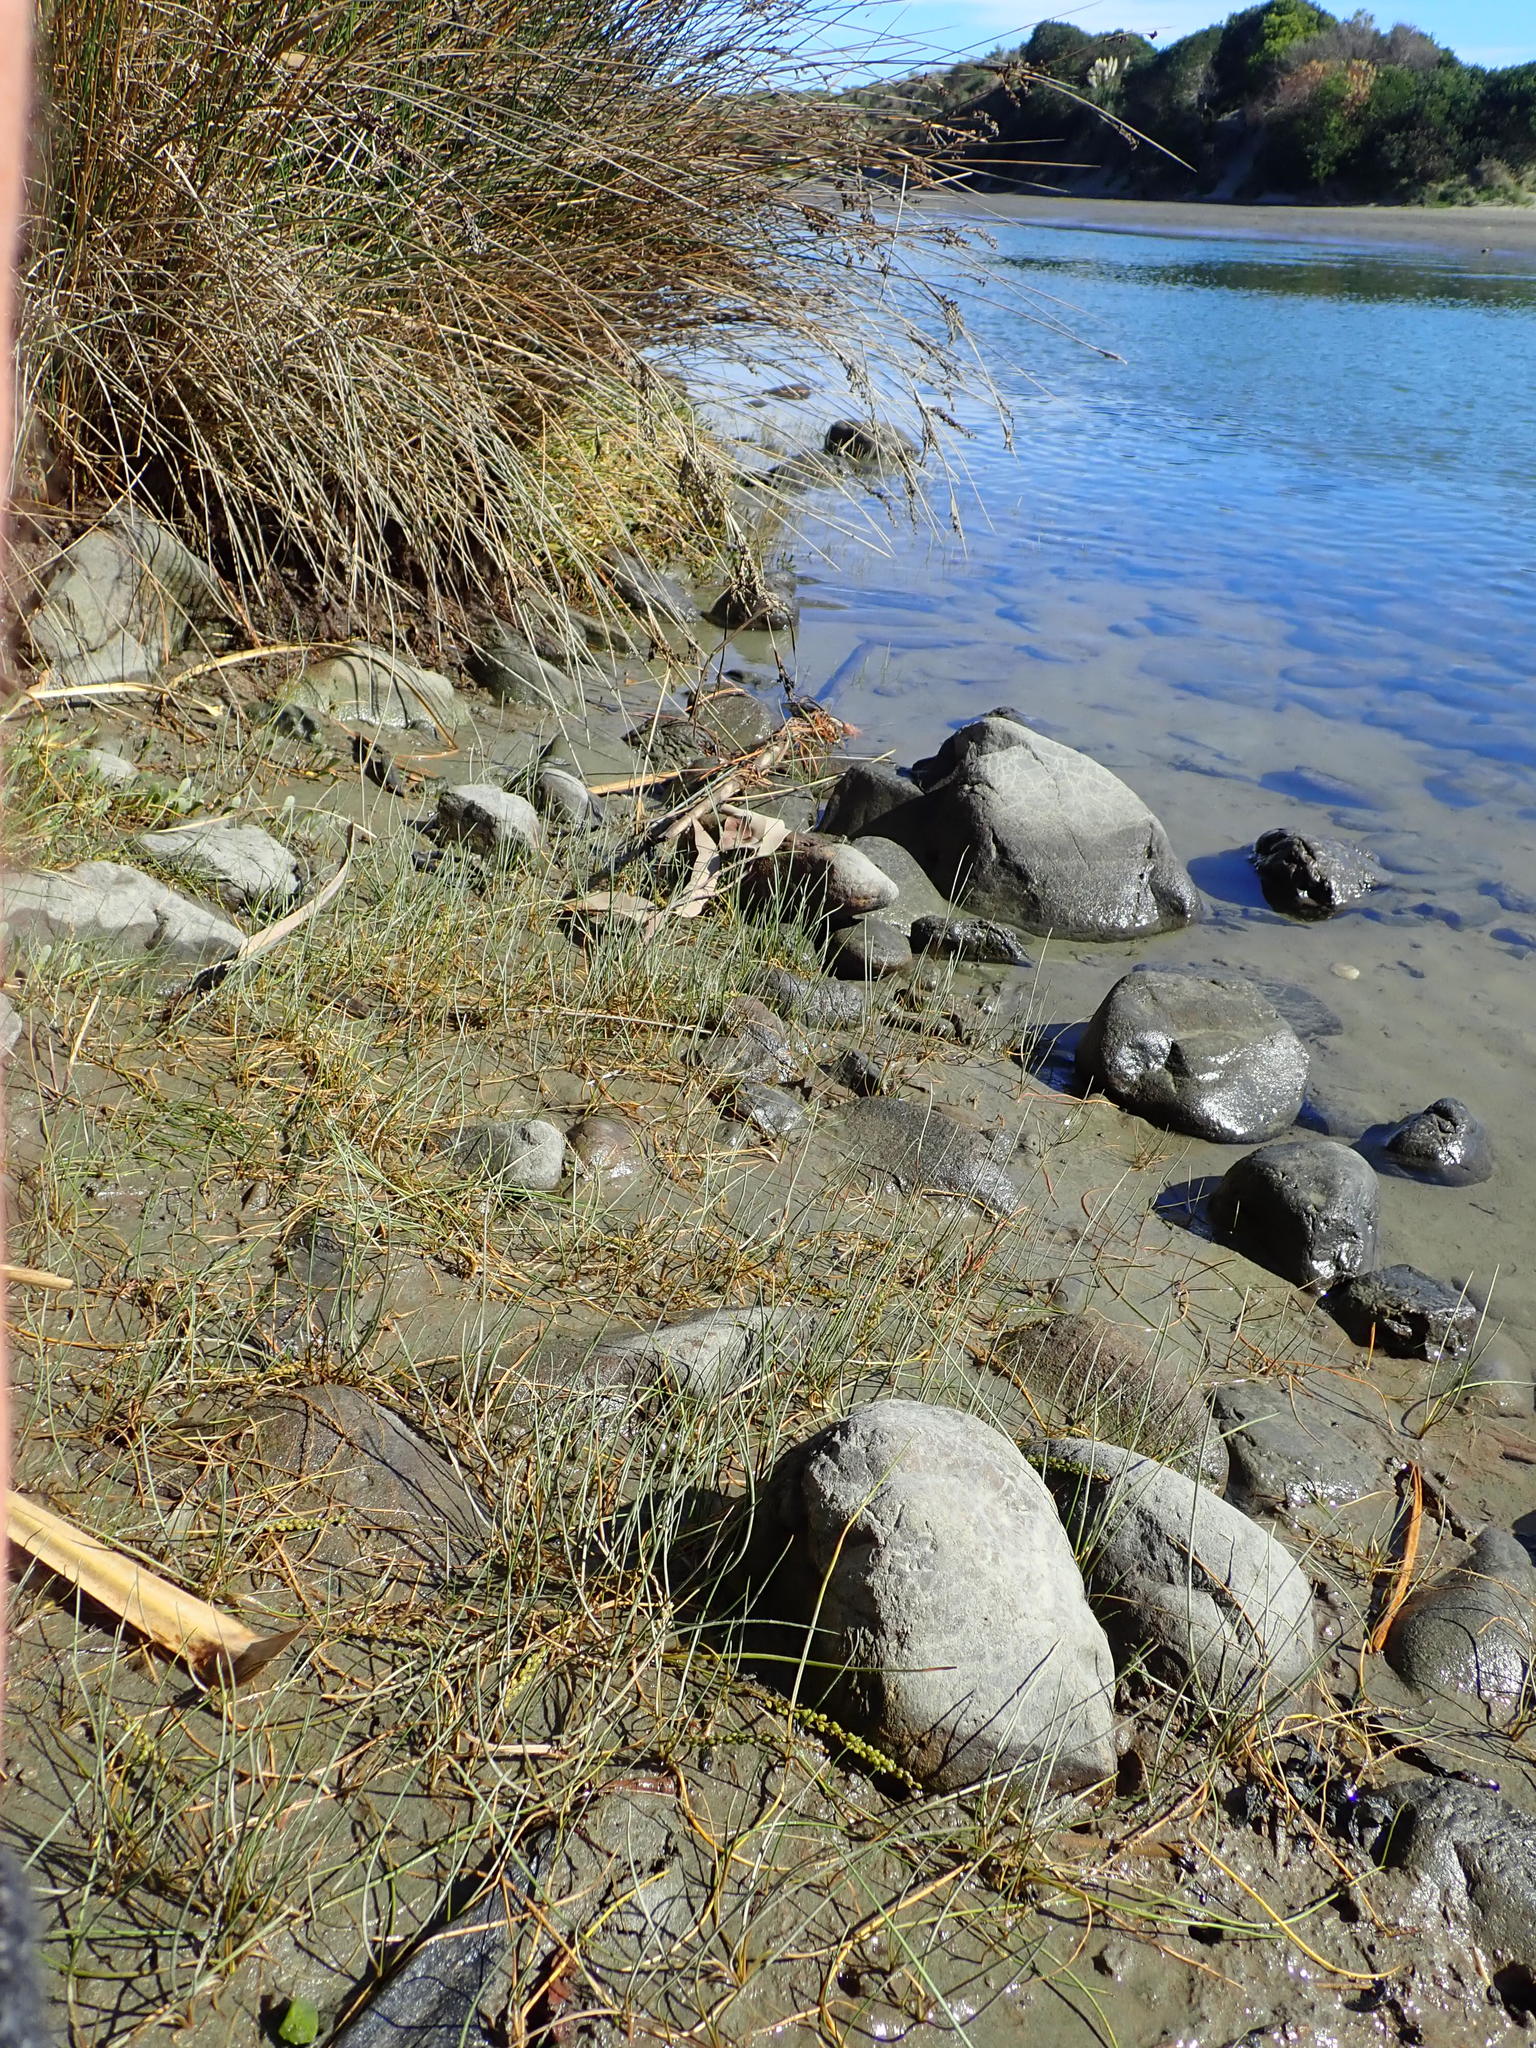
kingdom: Plantae
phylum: Tracheophyta
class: Liliopsida
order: Alismatales
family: Juncaginaceae
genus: Triglochin
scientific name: Triglochin striata
